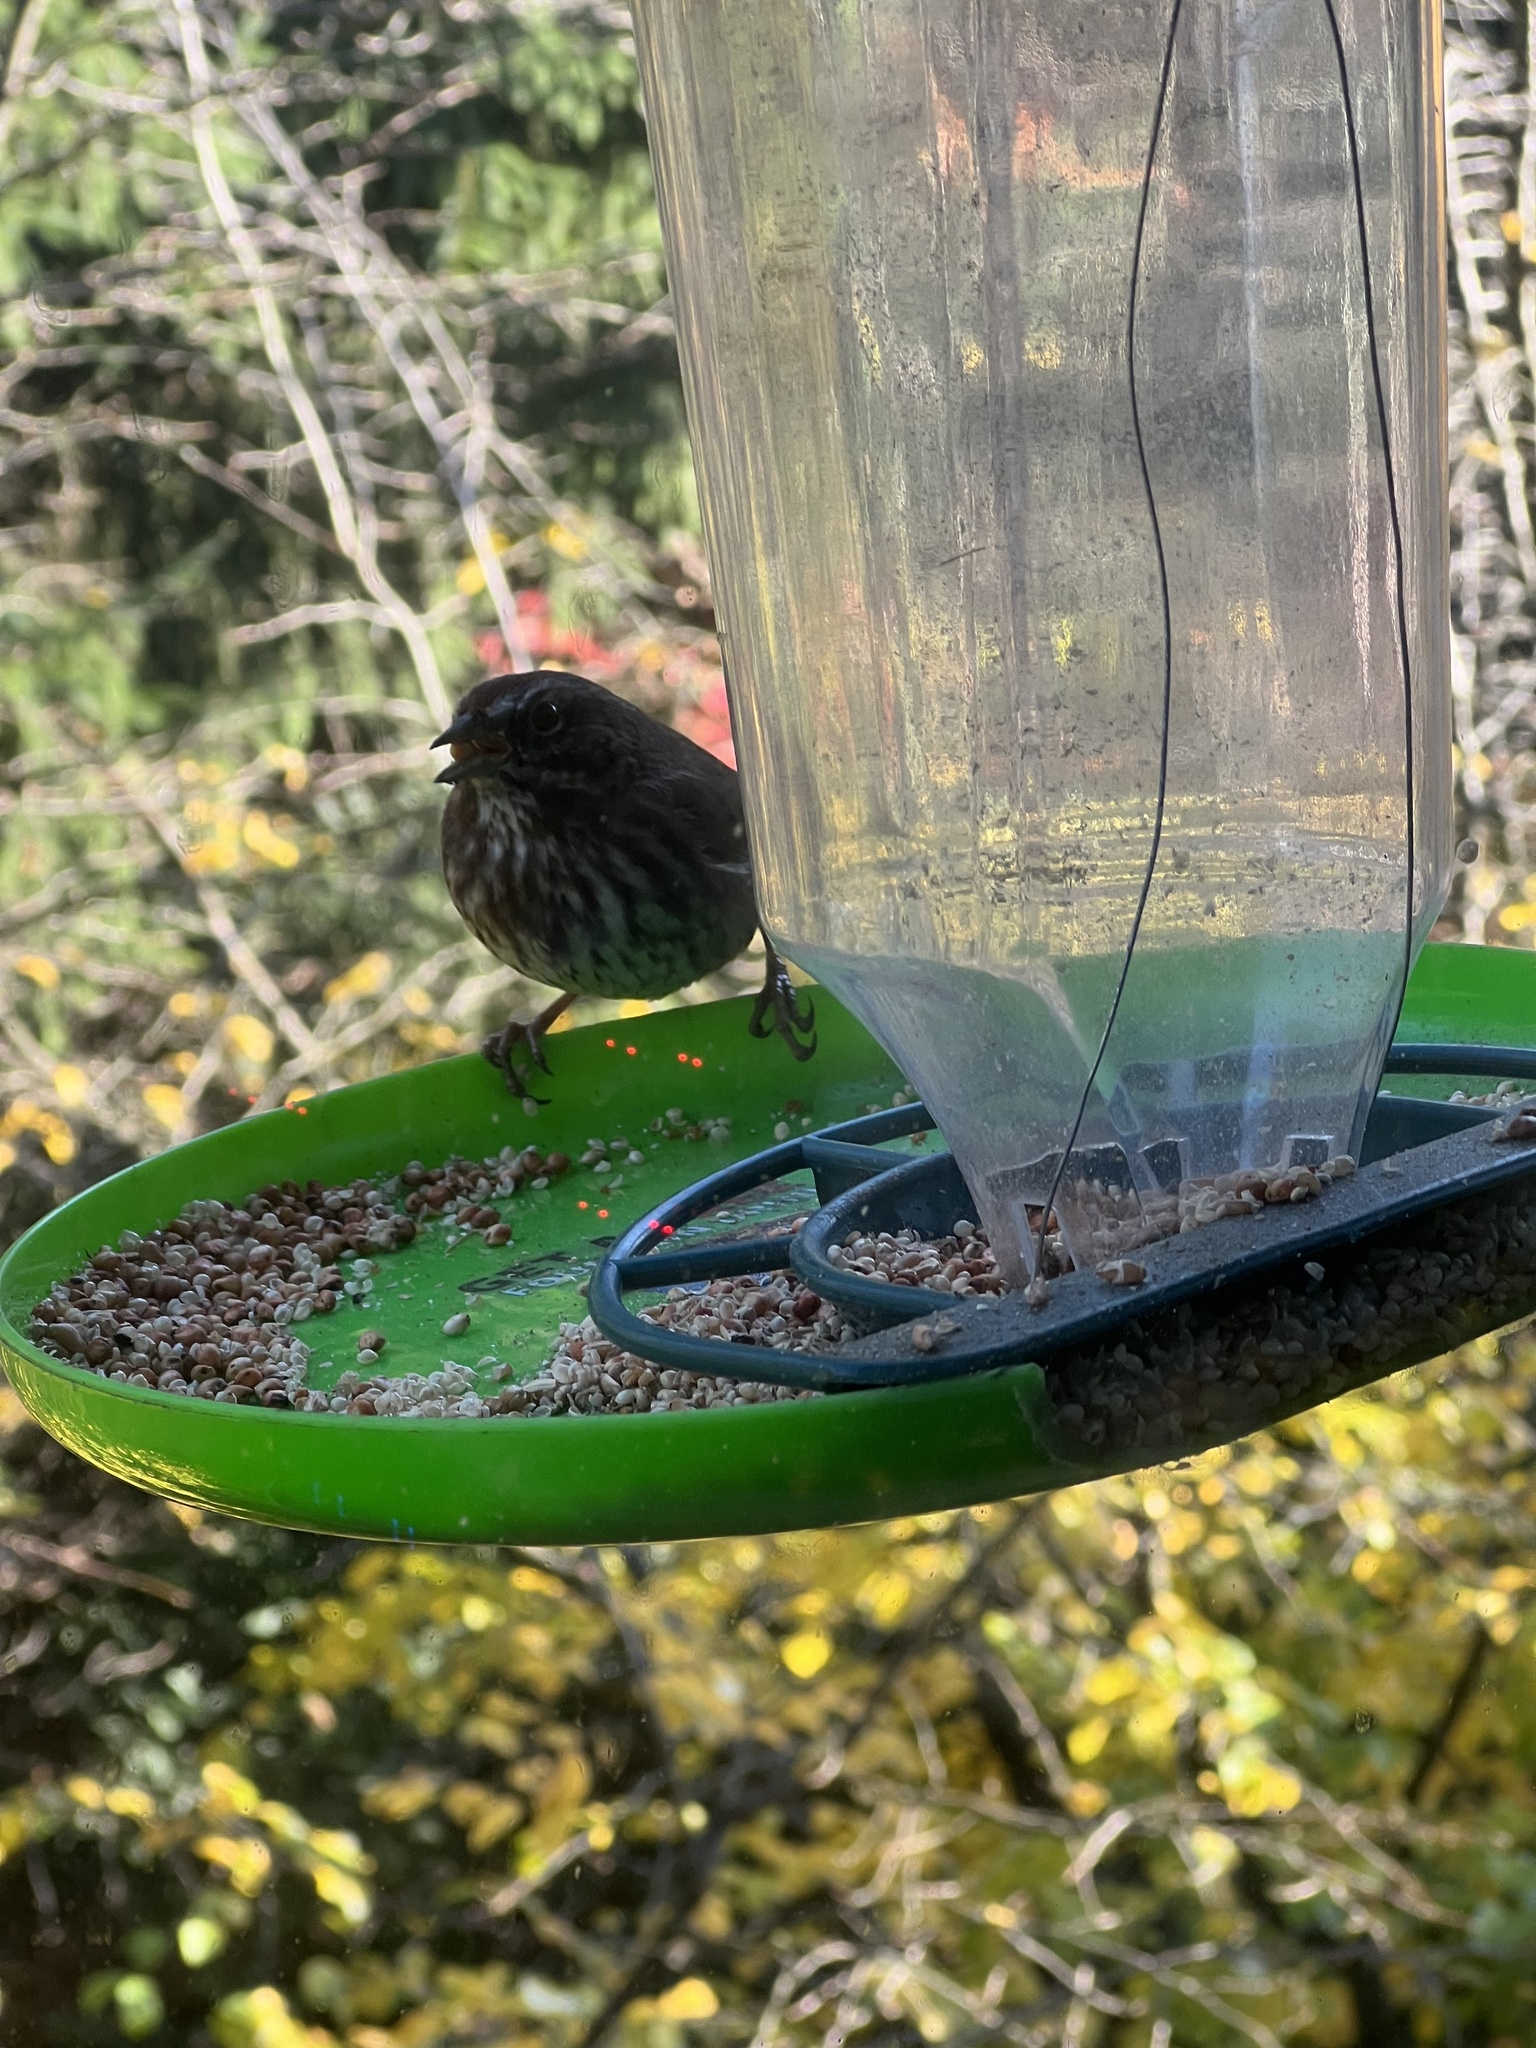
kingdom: Animalia
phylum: Chordata
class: Aves
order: Passeriformes
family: Passerellidae
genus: Melospiza
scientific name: Melospiza melodia
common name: Song sparrow
